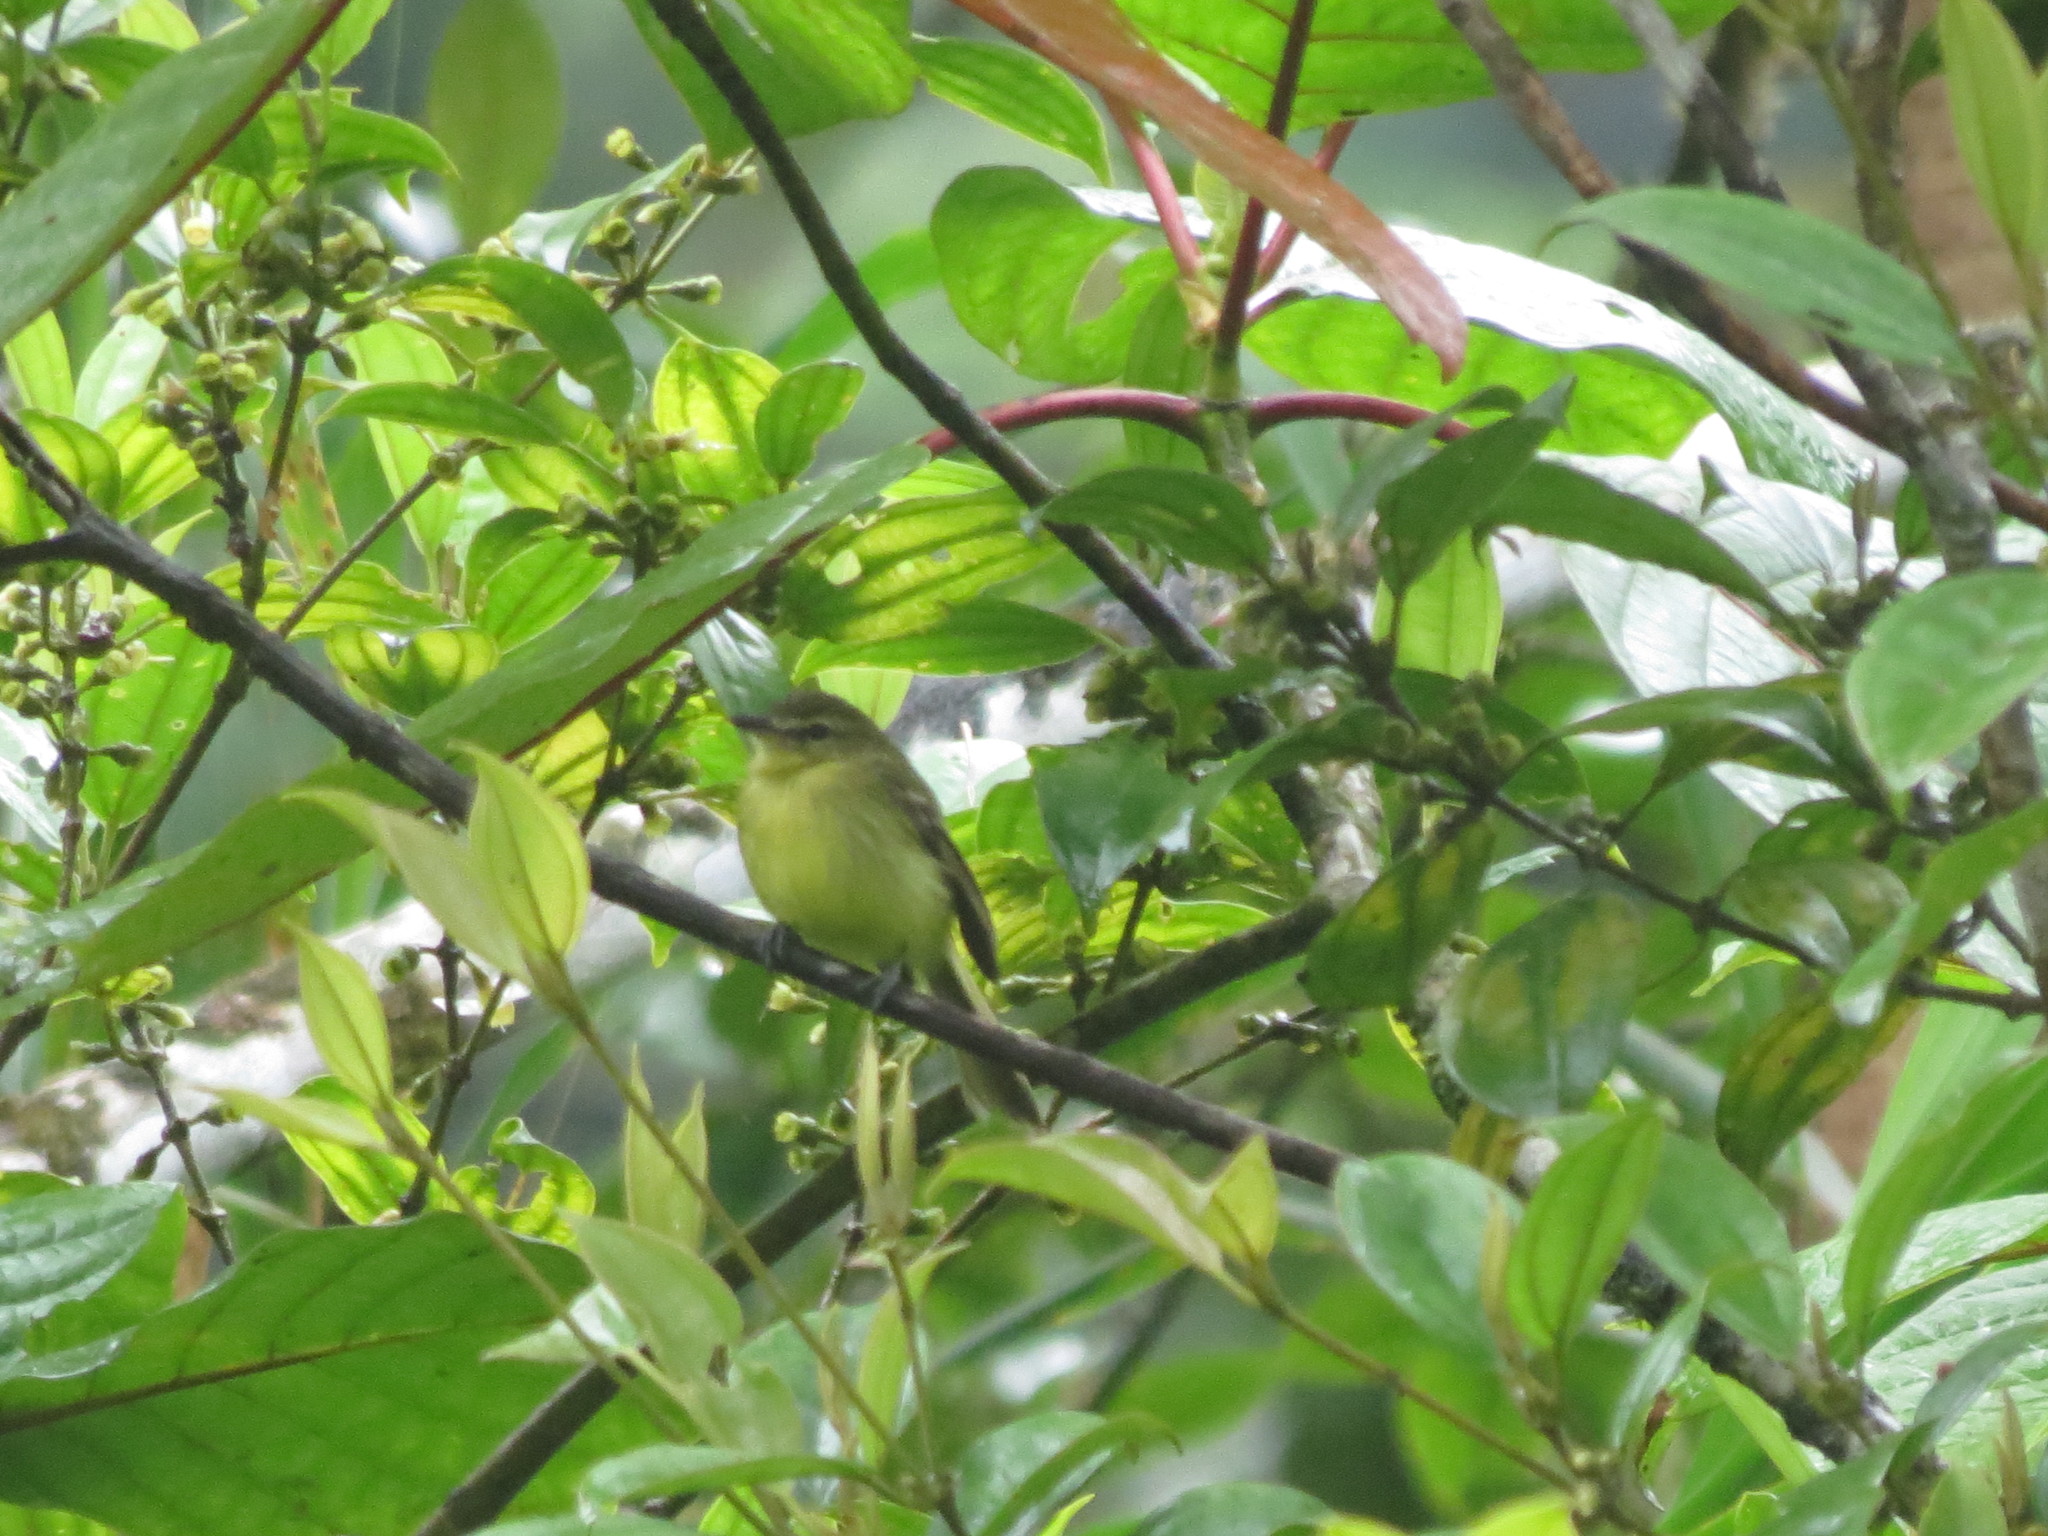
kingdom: Animalia
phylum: Chordata
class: Aves
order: Passeriformes
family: Tyrannidae
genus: Capsiempis
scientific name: Capsiempis flaveola
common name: Yellow tyrannulet
